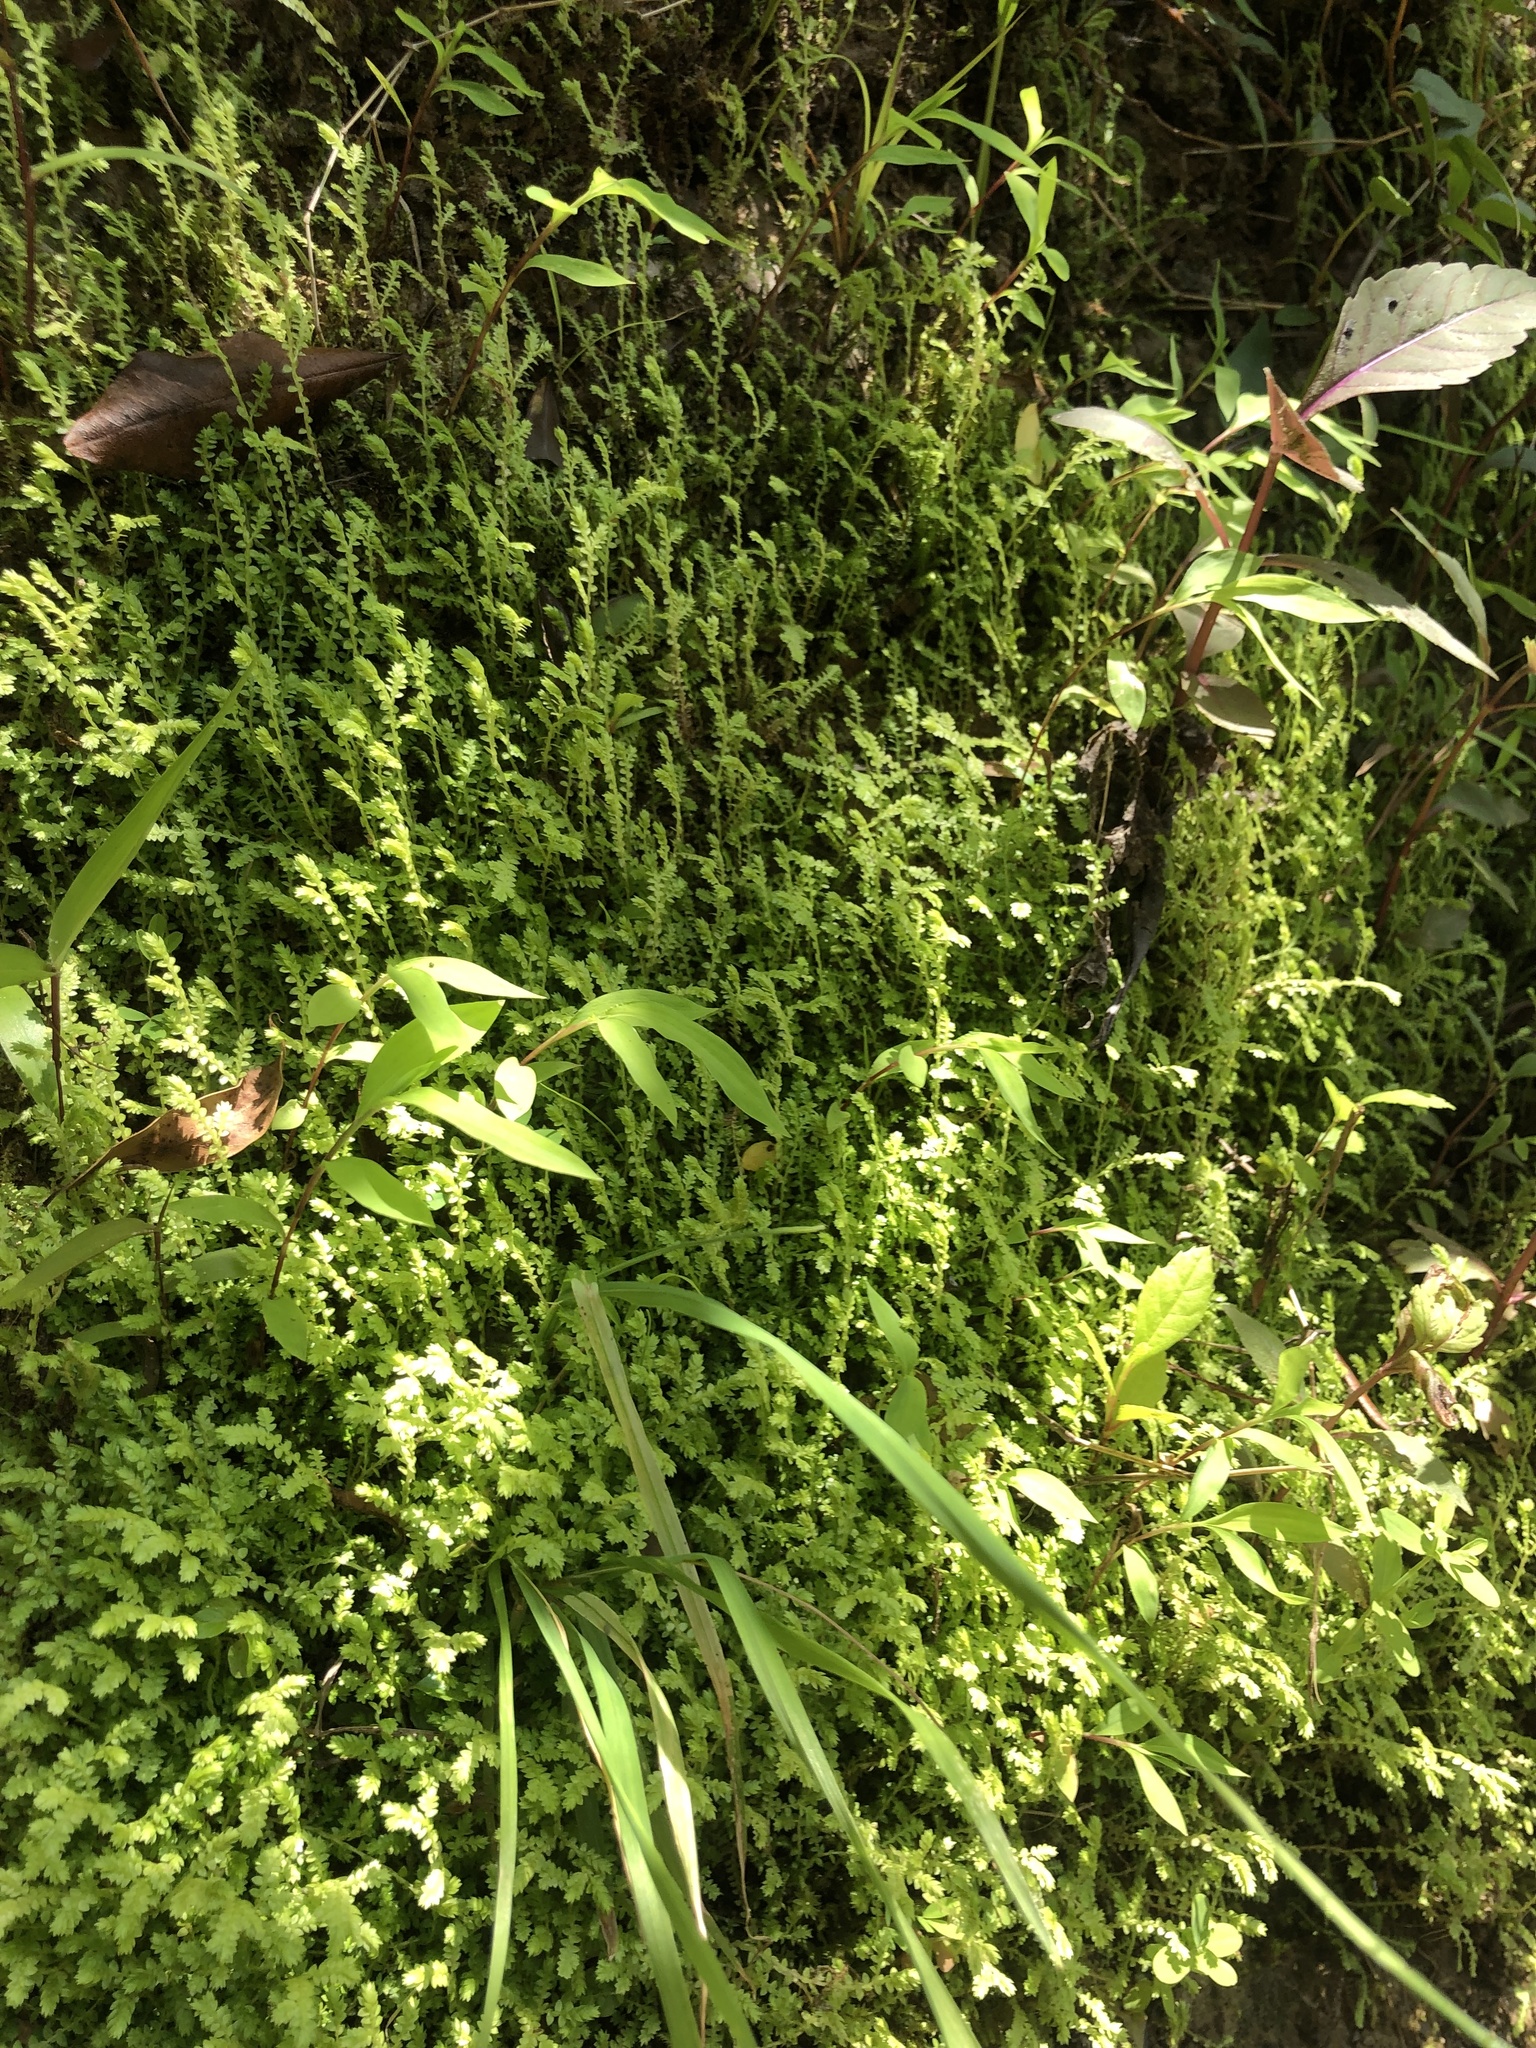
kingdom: Plantae
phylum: Tracheophyta
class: Lycopodiopsida
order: Selaginellales
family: Selaginellaceae
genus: Selaginella
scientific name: Selaginella ludoviciana
